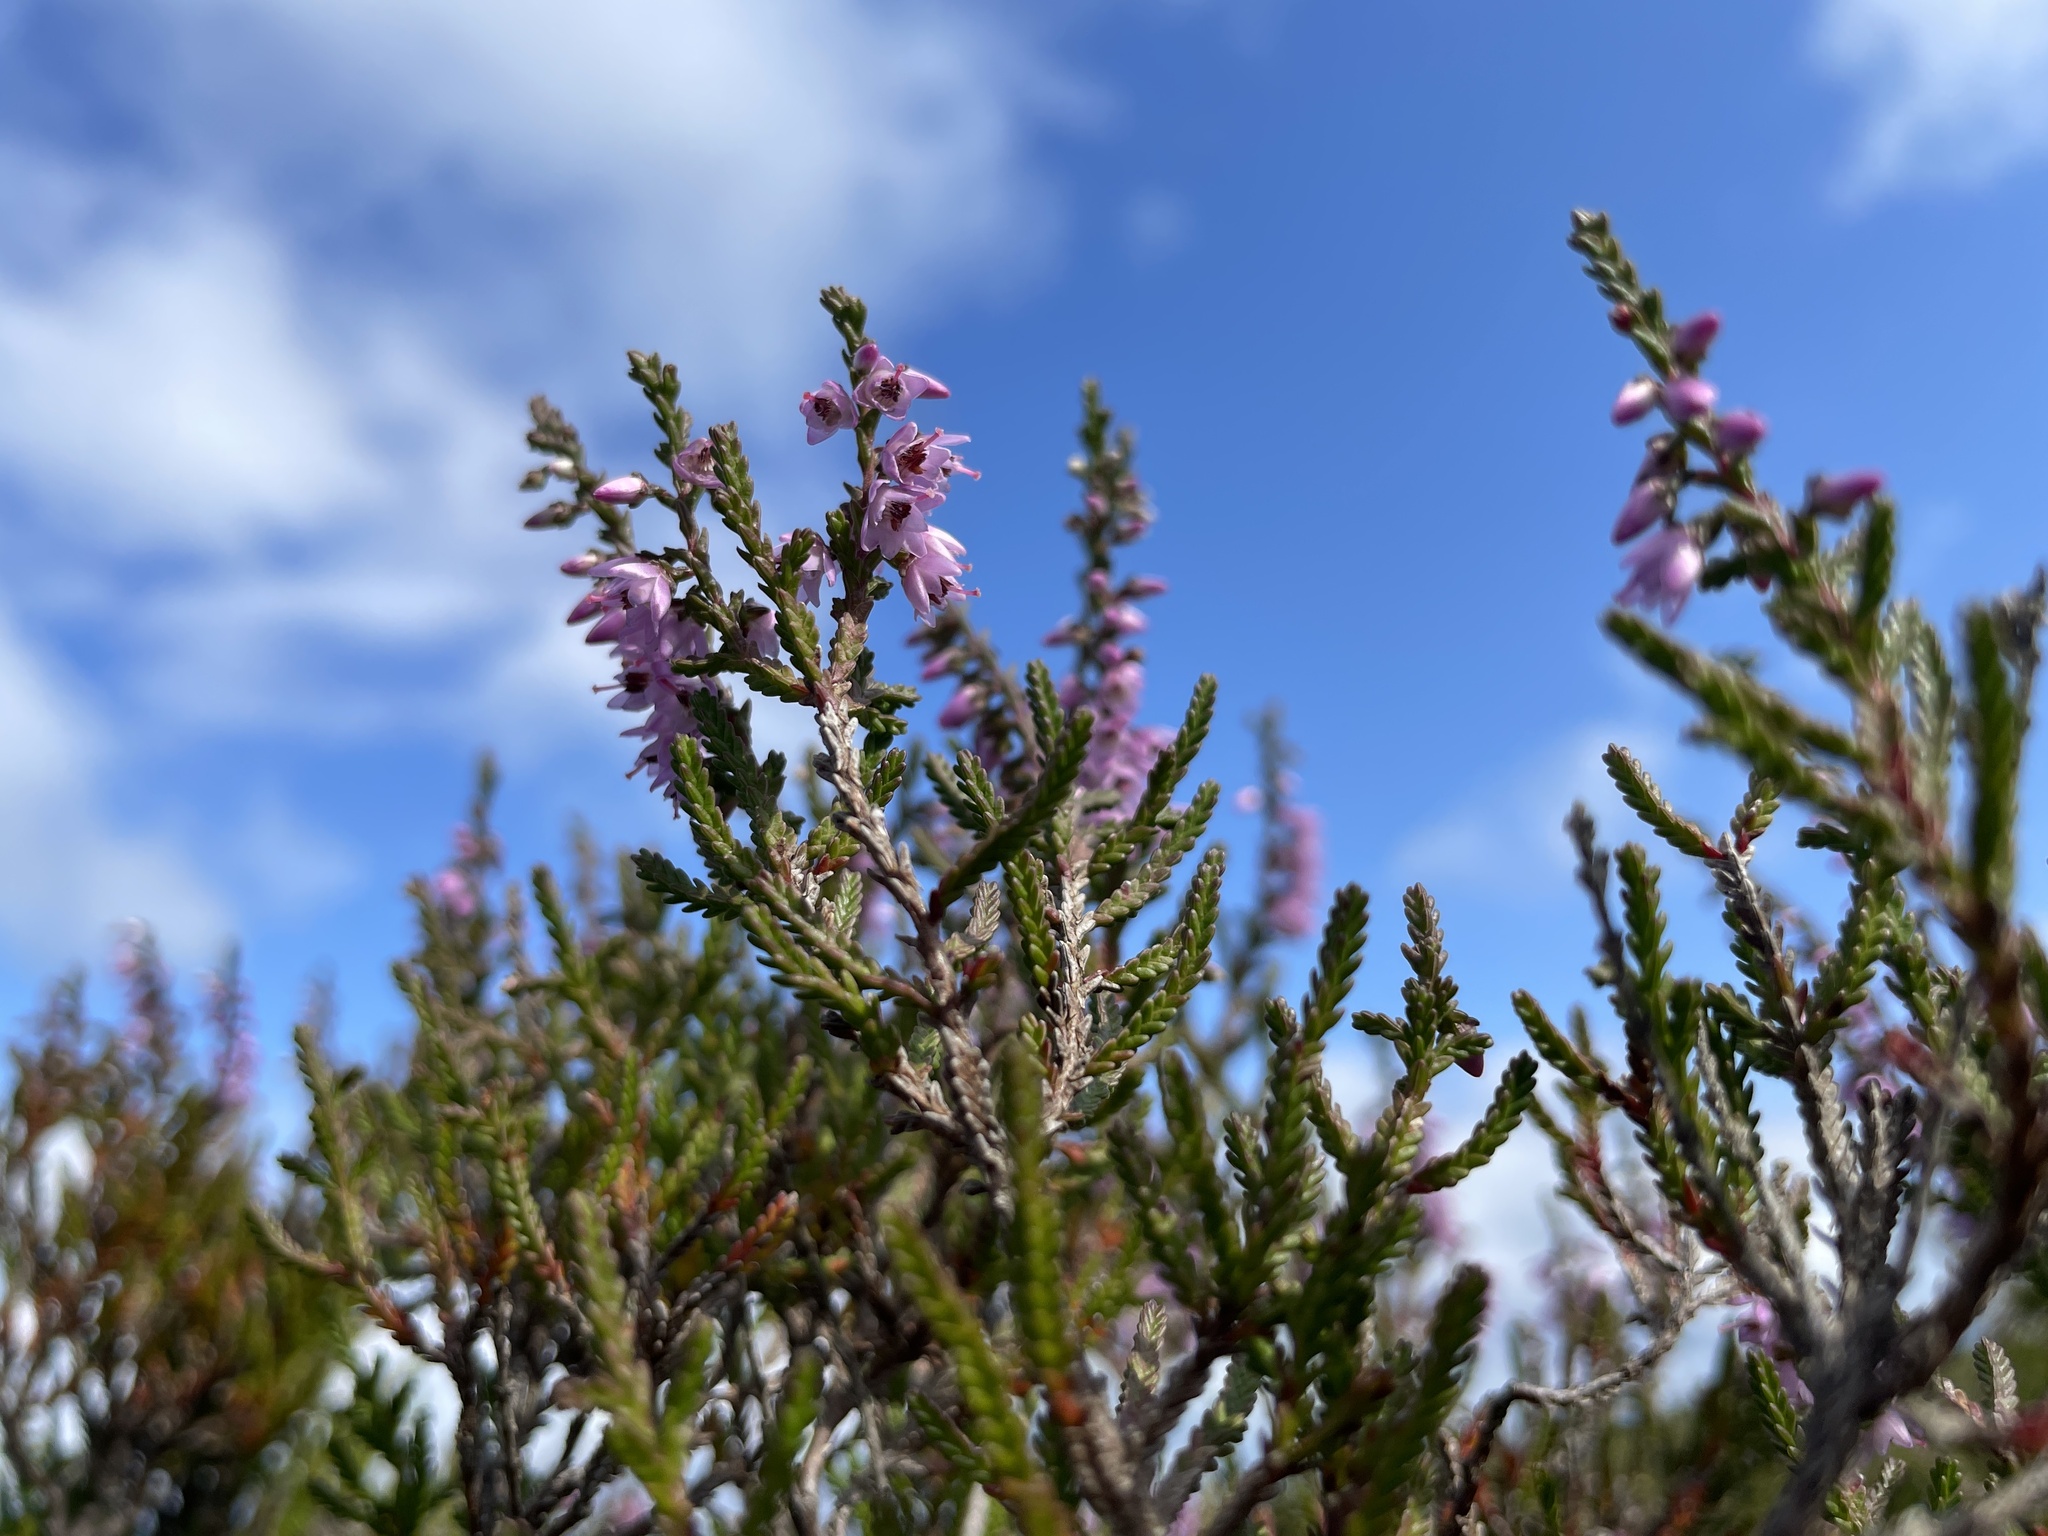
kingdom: Plantae
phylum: Tracheophyta
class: Magnoliopsida
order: Ericales
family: Ericaceae
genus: Calluna
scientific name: Calluna vulgaris
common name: Heather
